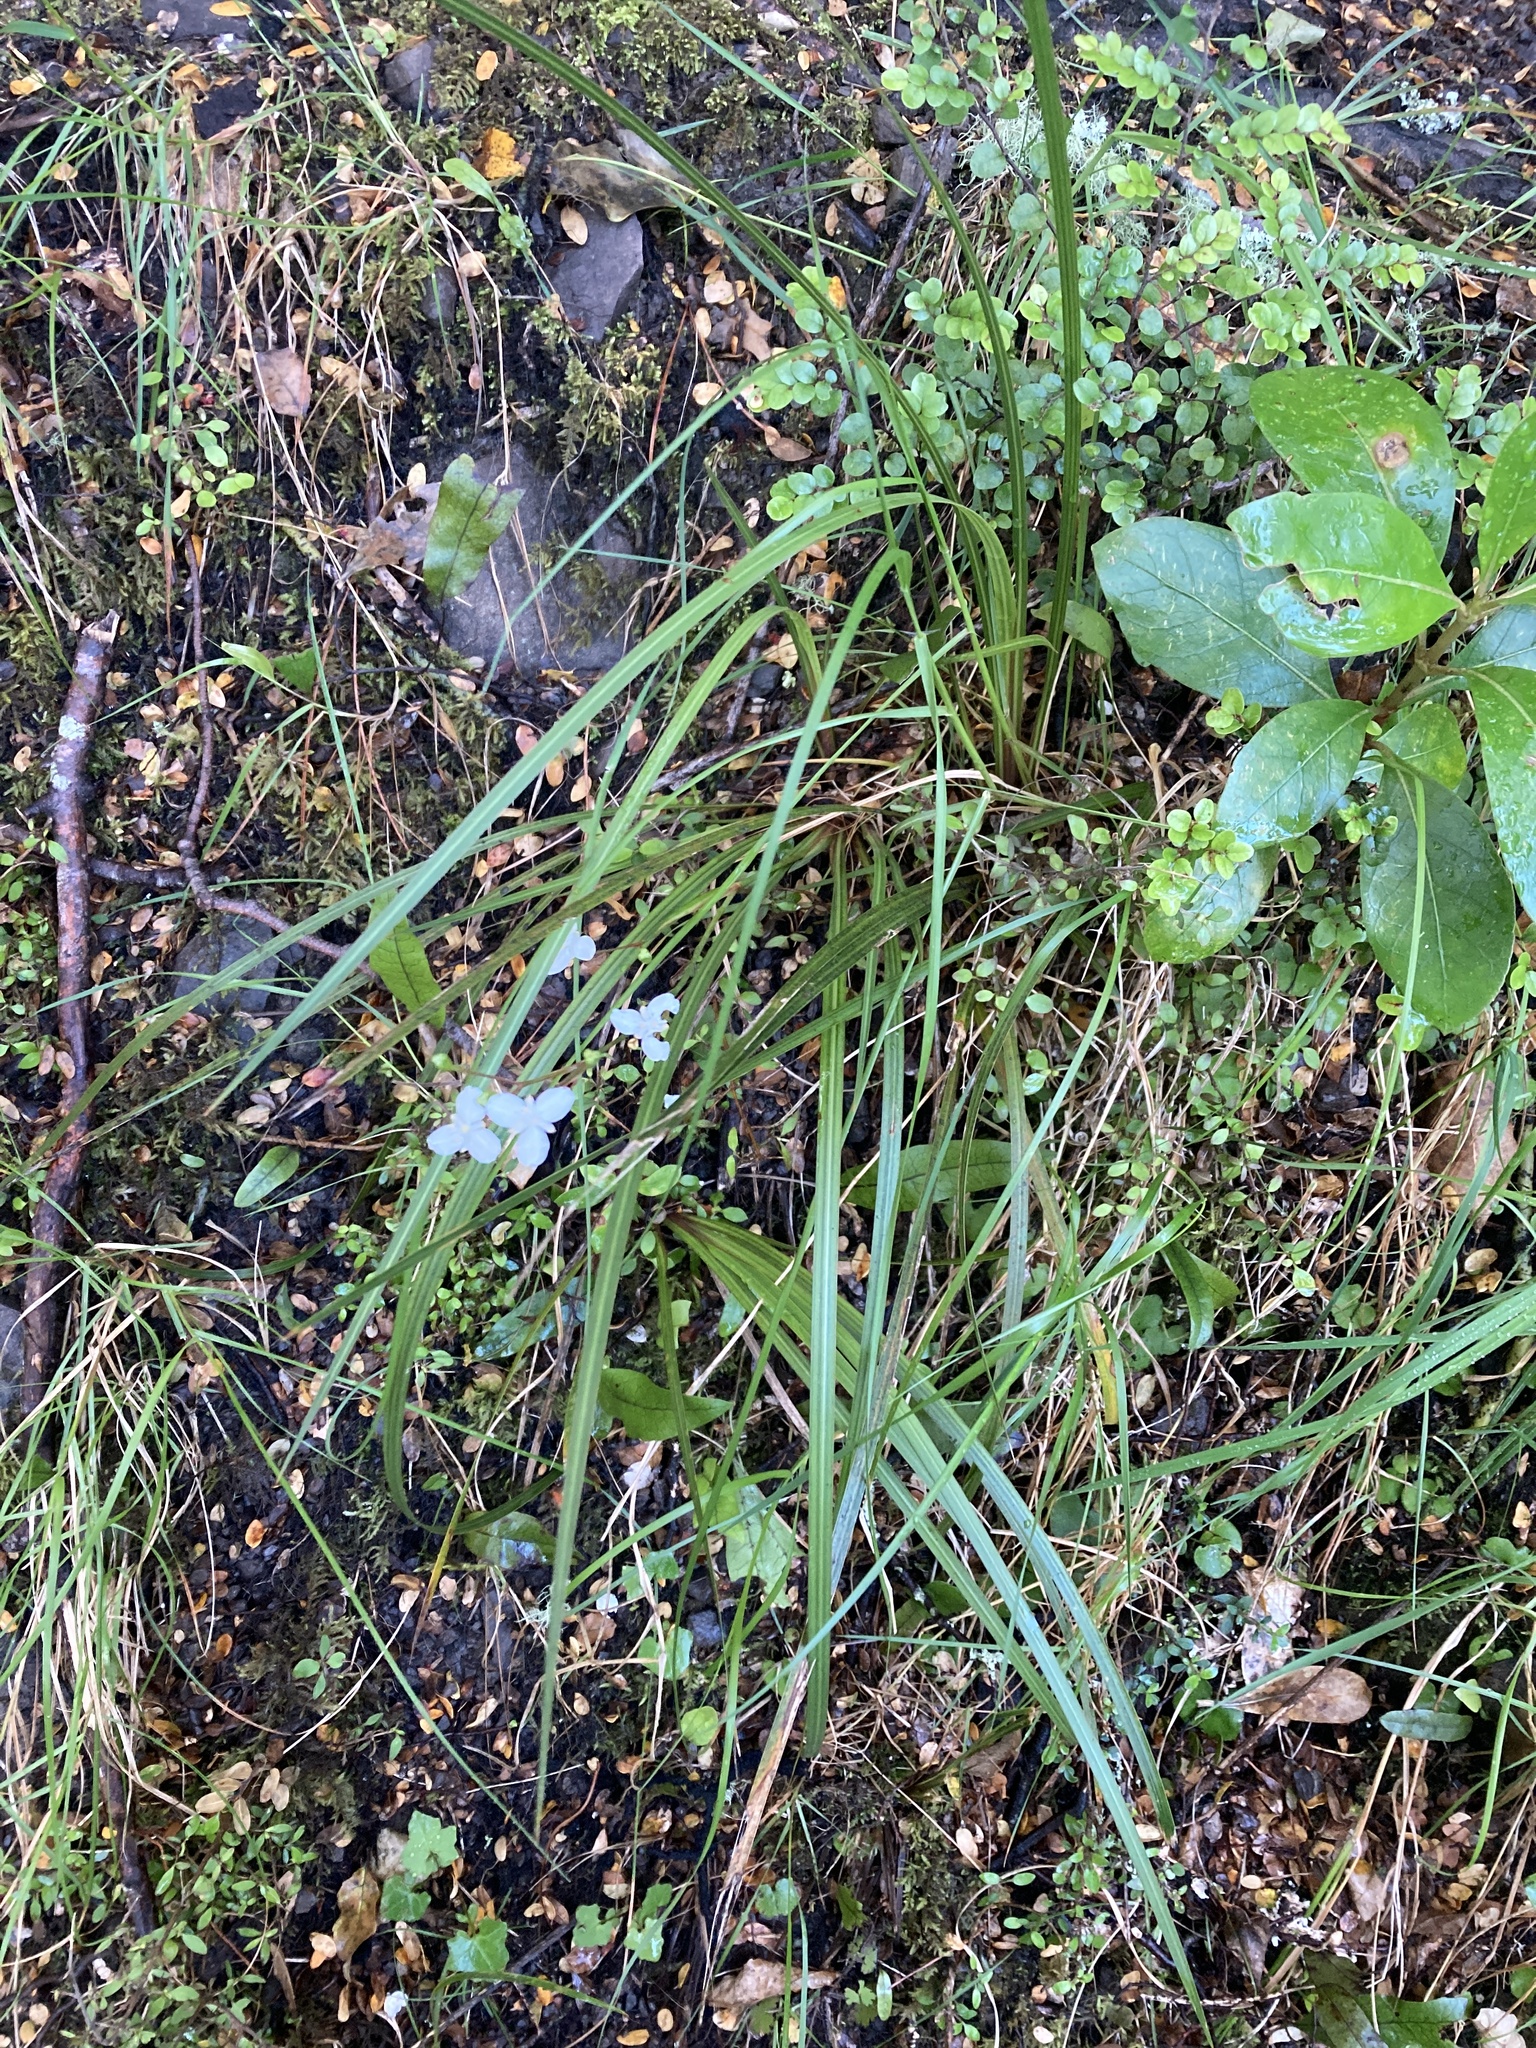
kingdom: Plantae
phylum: Tracheophyta
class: Liliopsida
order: Asparagales
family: Iridaceae
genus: Libertia
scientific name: Libertia ixioides
